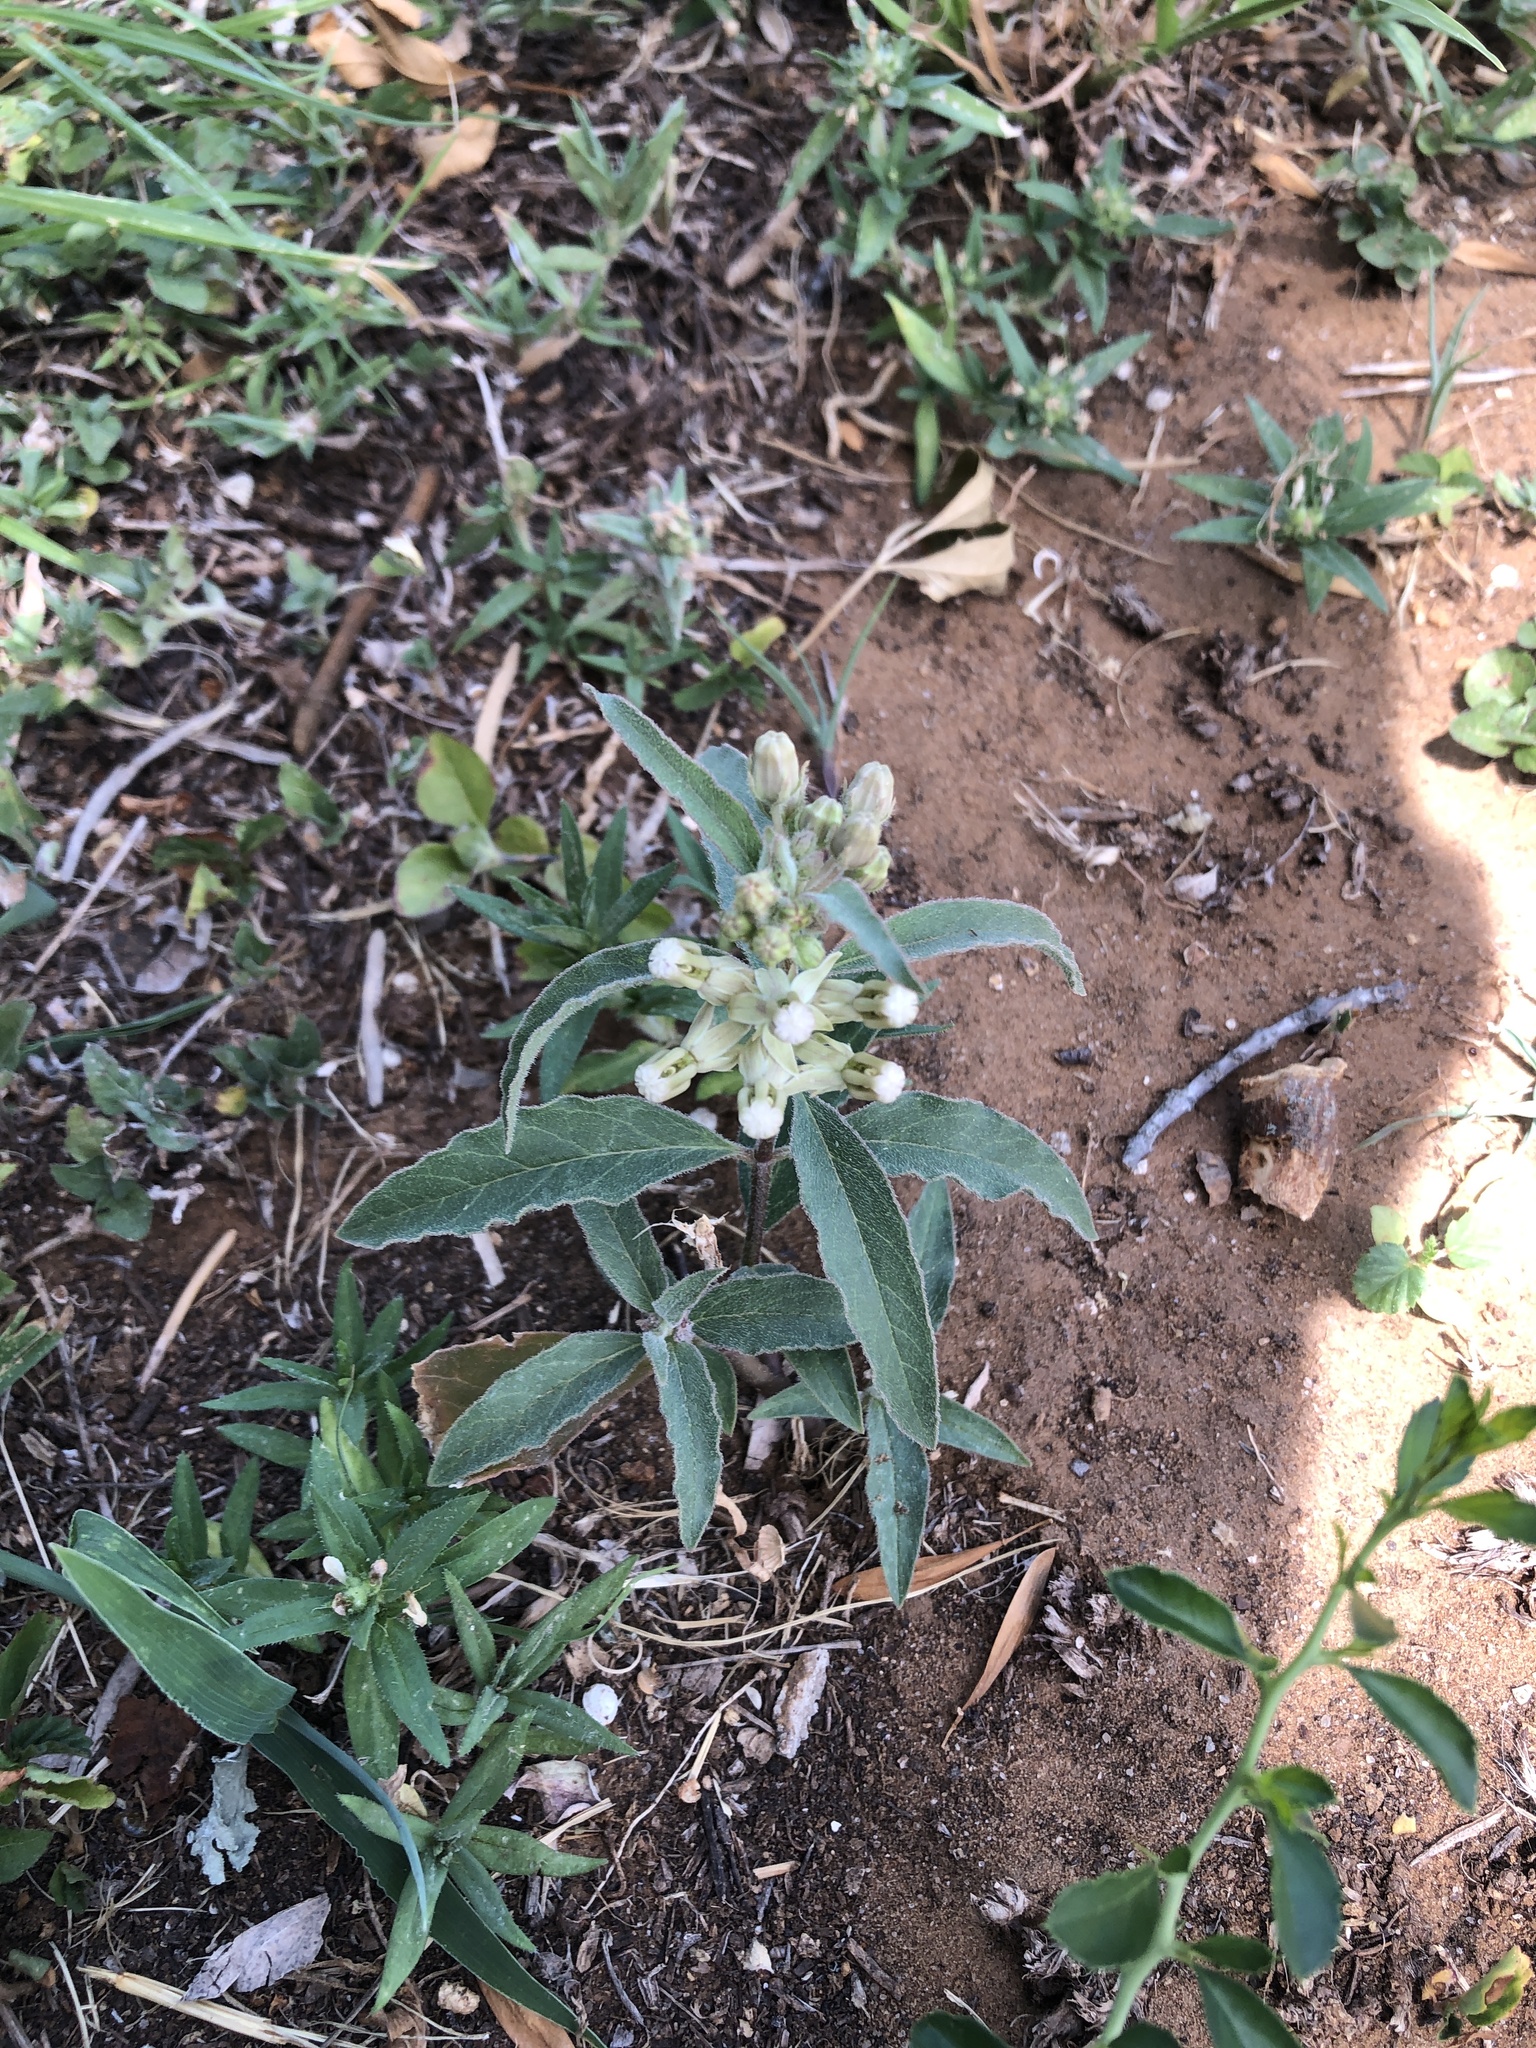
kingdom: Plantae
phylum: Tracheophyta
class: Magnoliopsida
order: Gentianales
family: Apocynaceae
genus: Asclepias
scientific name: Asclepias emoryi
